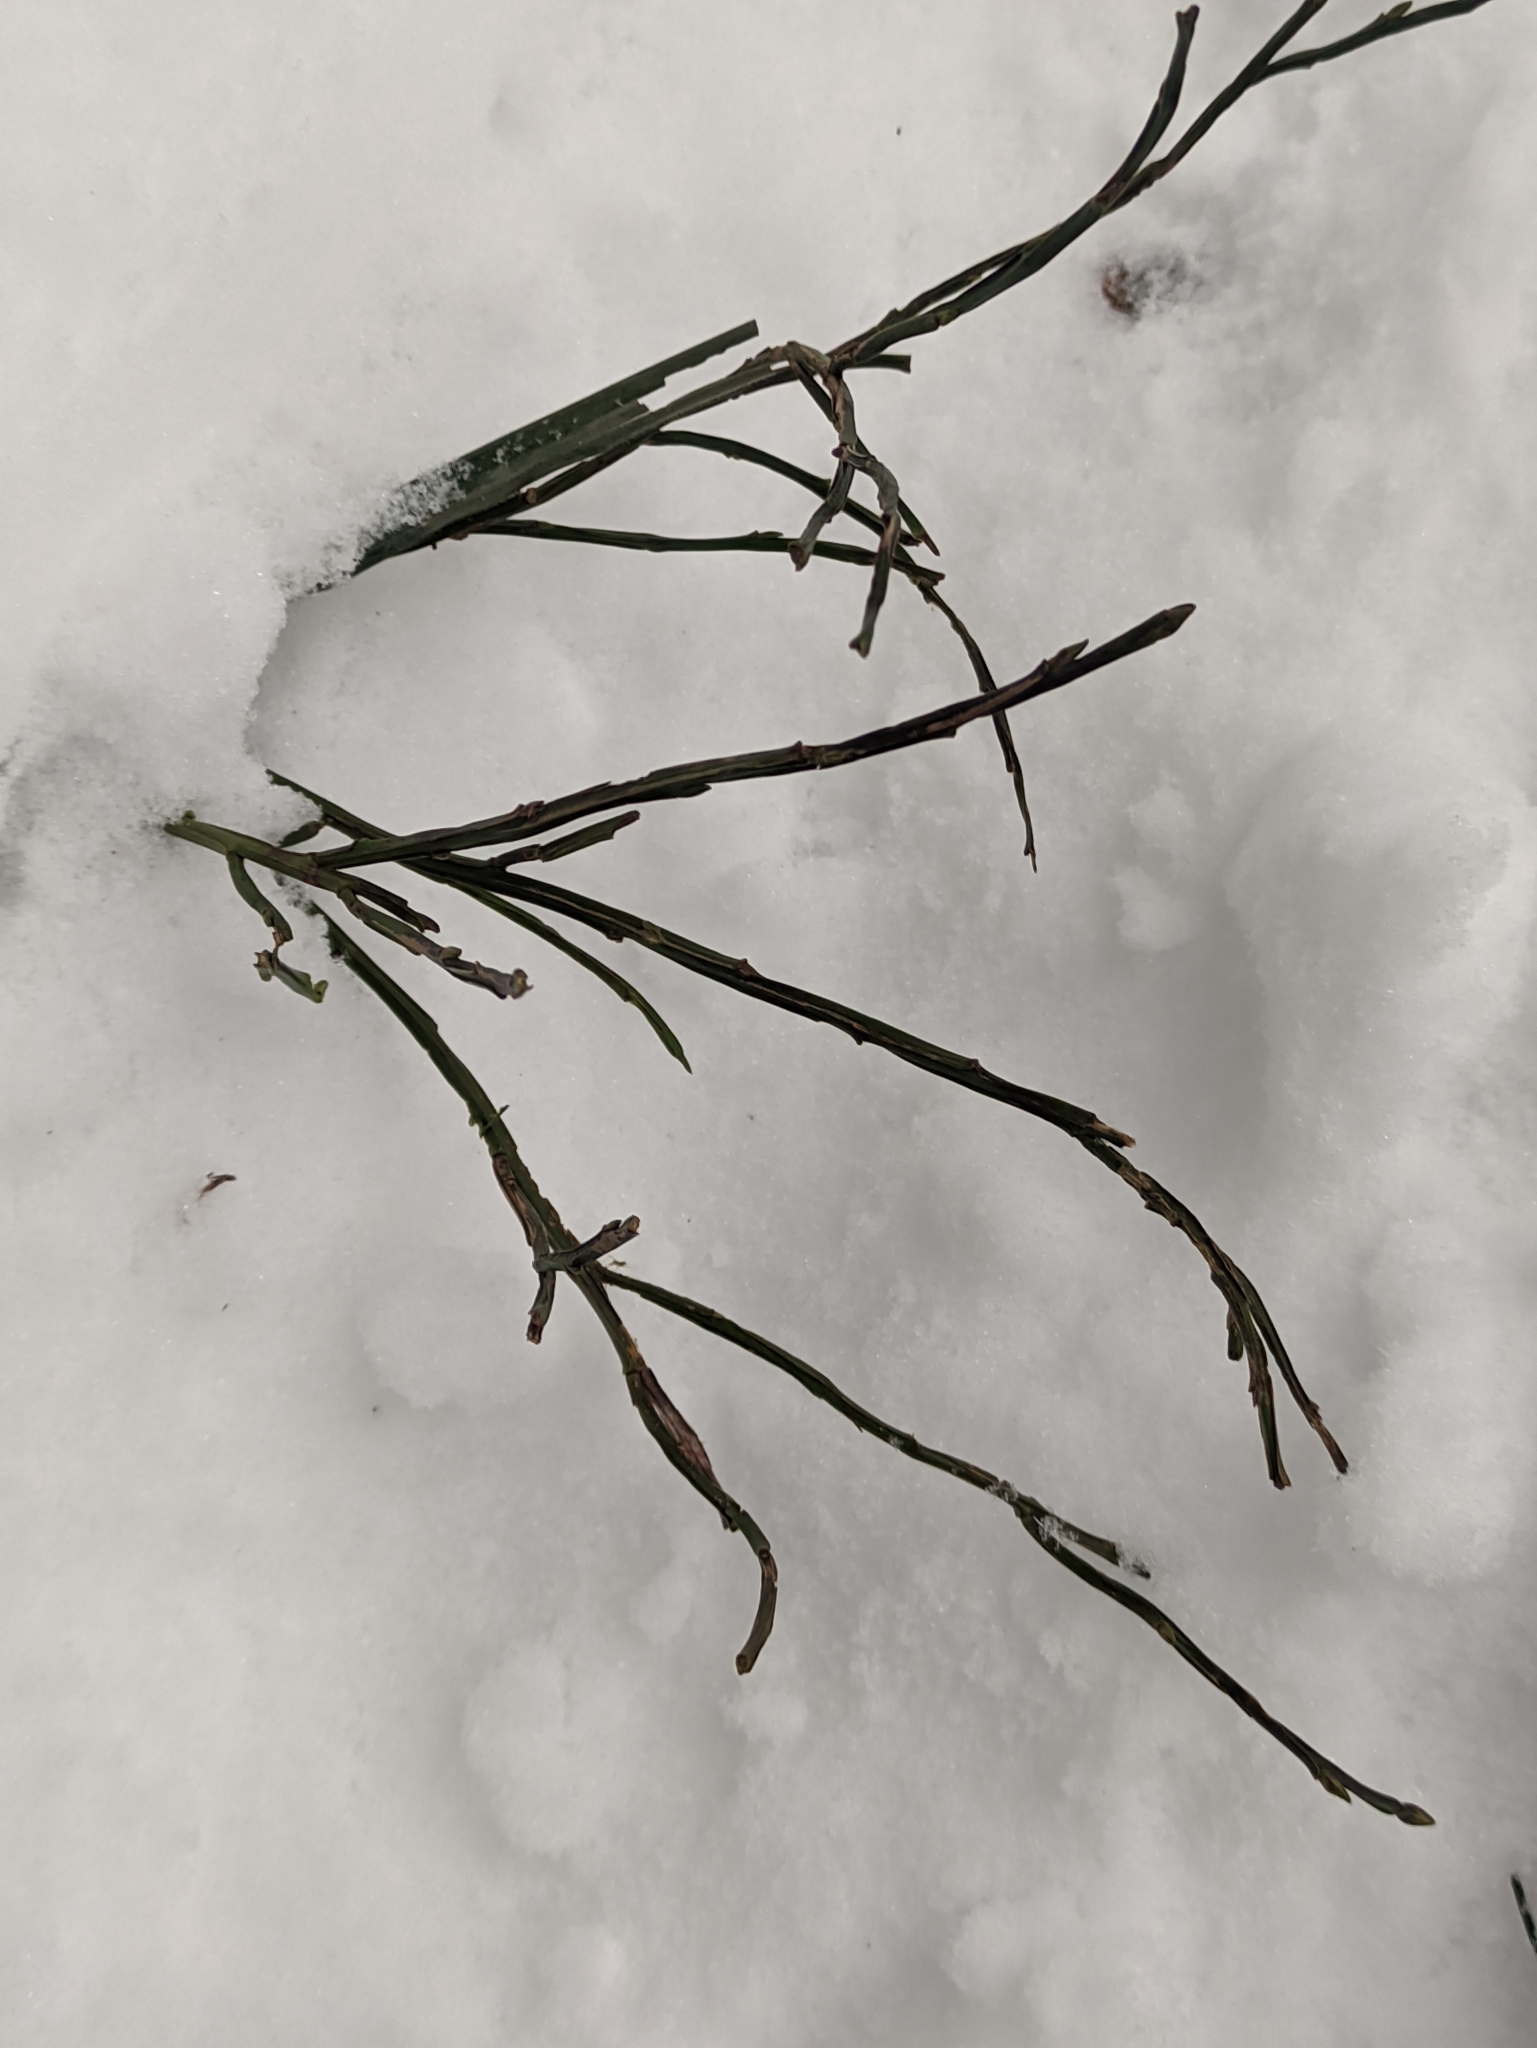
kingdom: Plantae
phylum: Tracheophyta
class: Magnoliopsida
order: Ericales
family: Ericaceae
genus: Vaccinium
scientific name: Vaccinium myrtillus
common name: Bilberry
